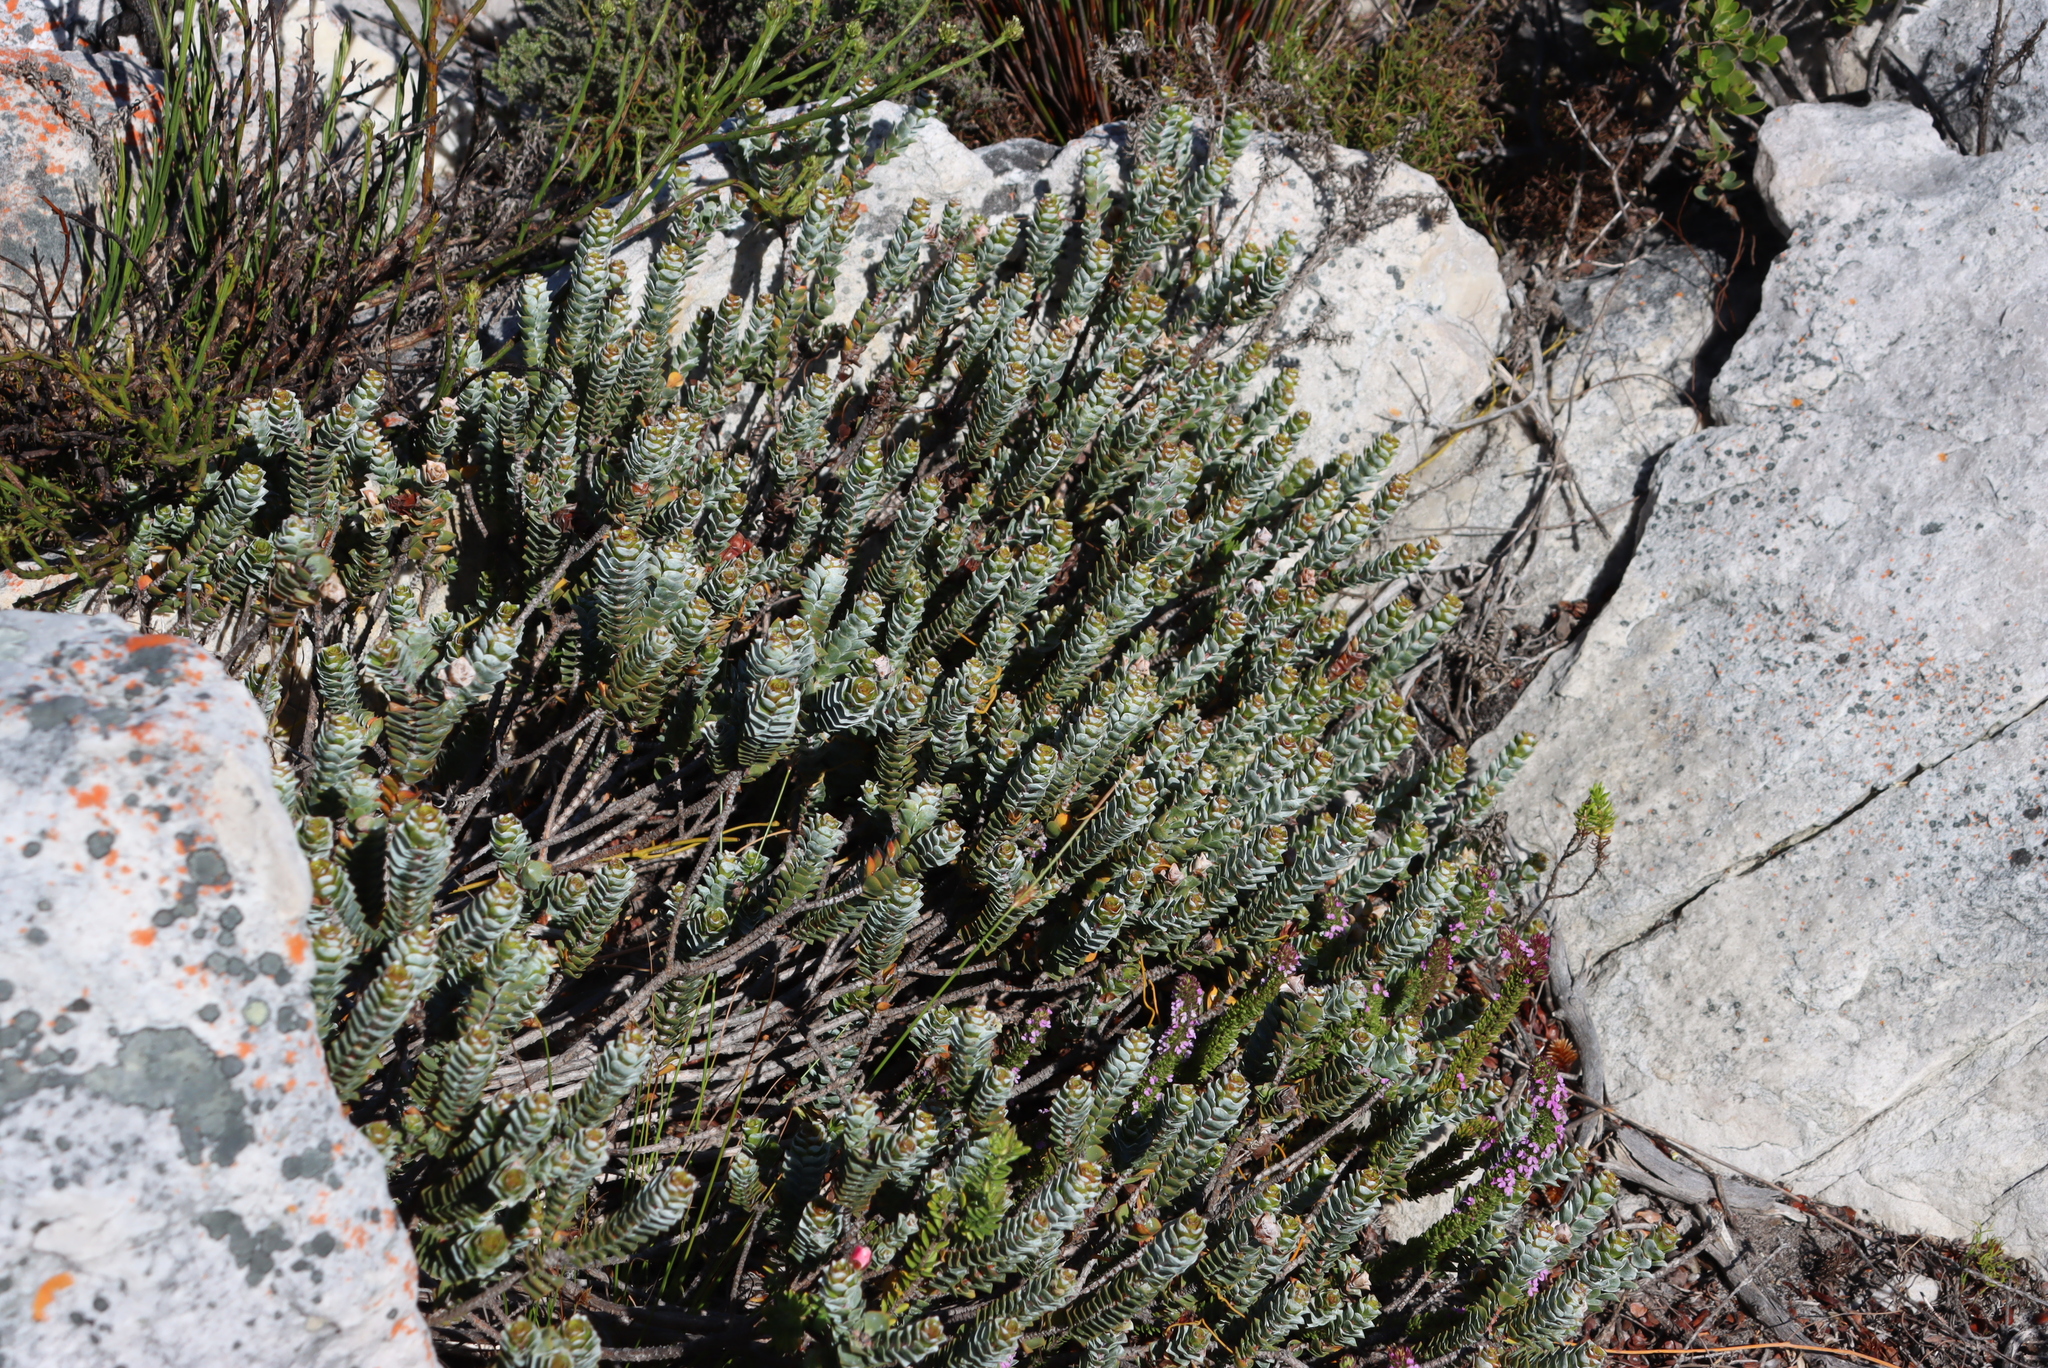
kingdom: Plantae
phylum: Tracheophyta
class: Magnoliopsida
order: Myrtales
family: Penaeaceae
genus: Saltera
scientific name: Saltera sarcocolla
